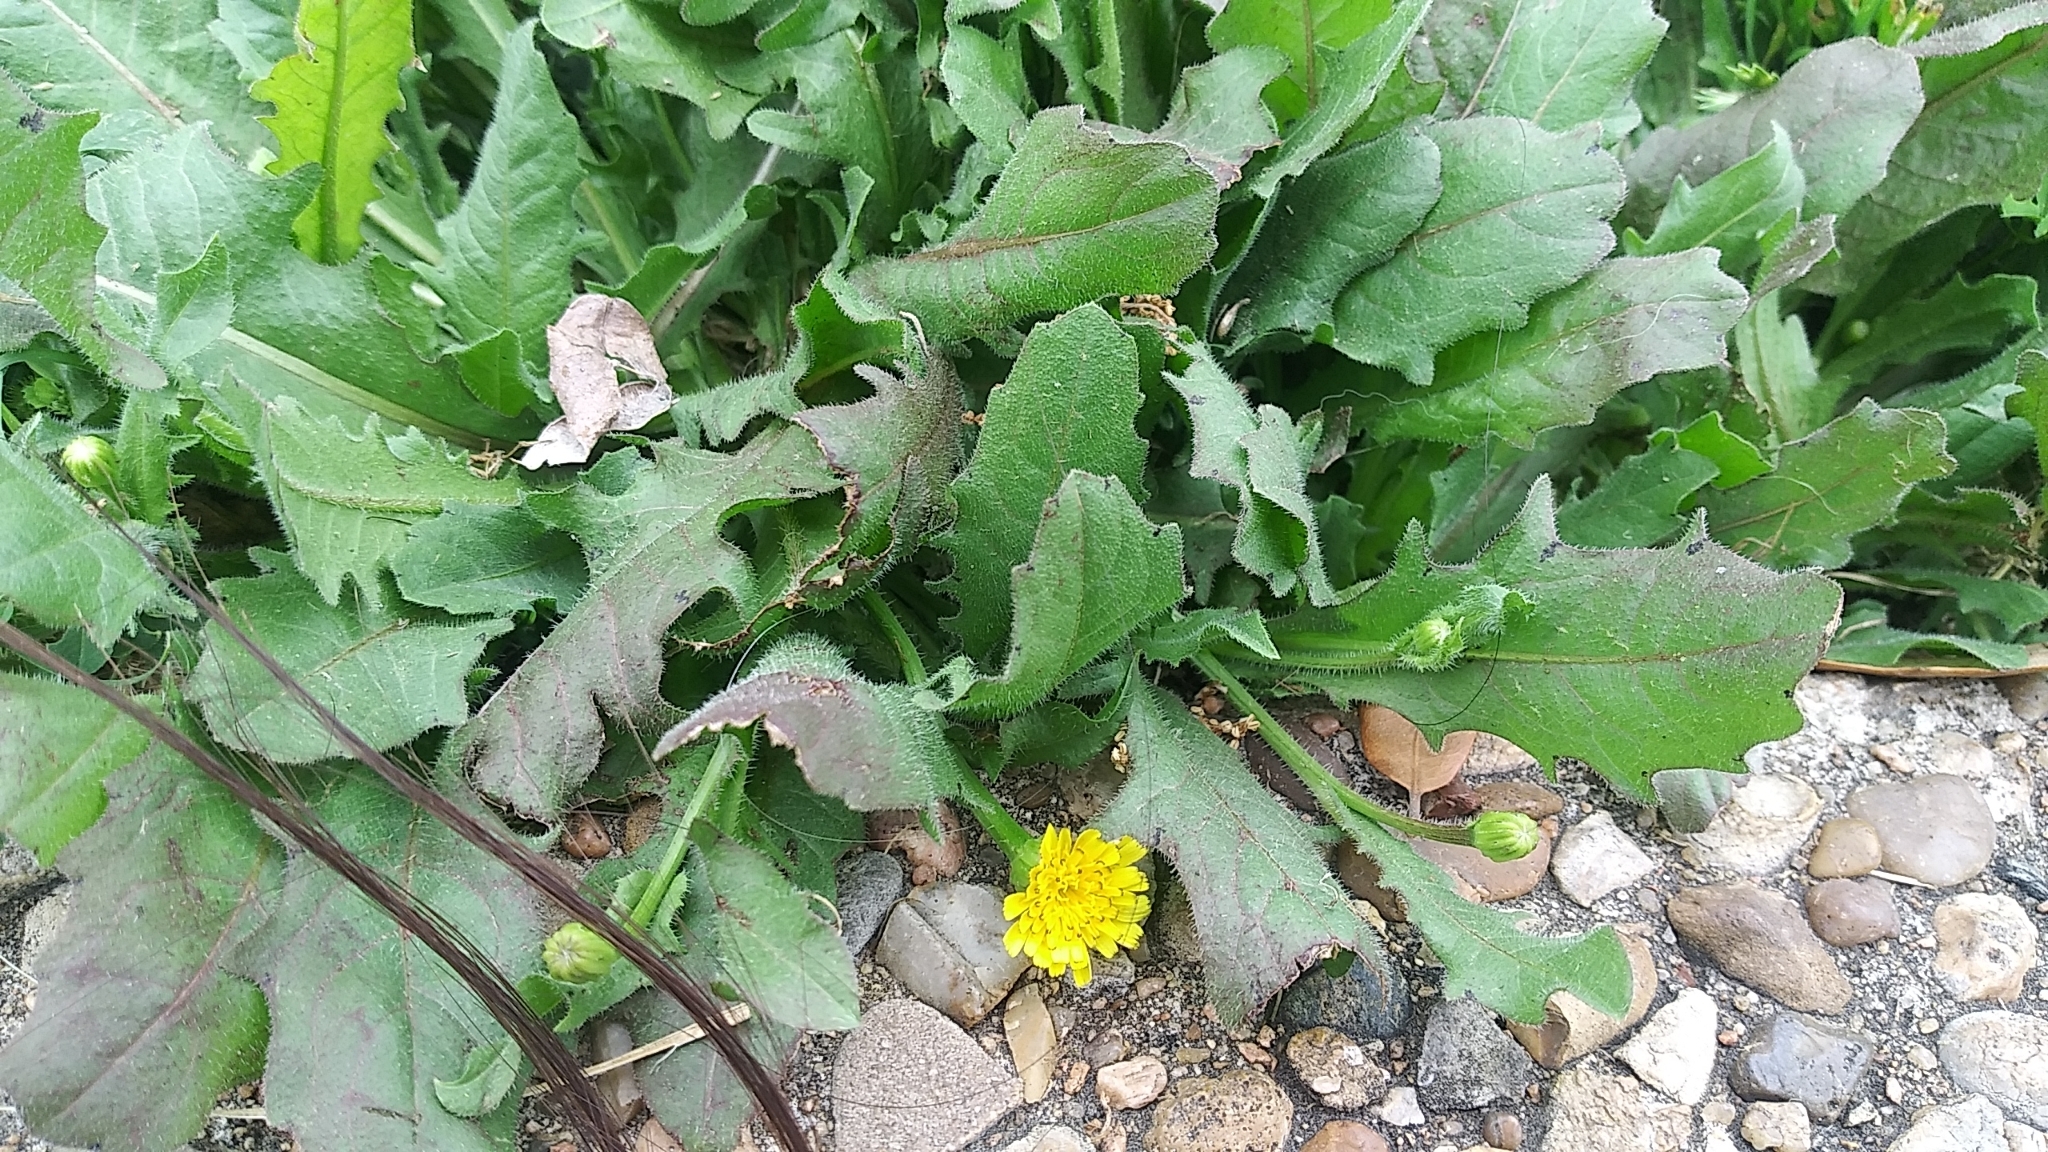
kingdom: Plantae
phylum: Tracheophyta
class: Magnoliopsida
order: Asterales
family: Asteraceae
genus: Hedypnois
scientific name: Hedypnois rhagadioloides
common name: Cretan weed
